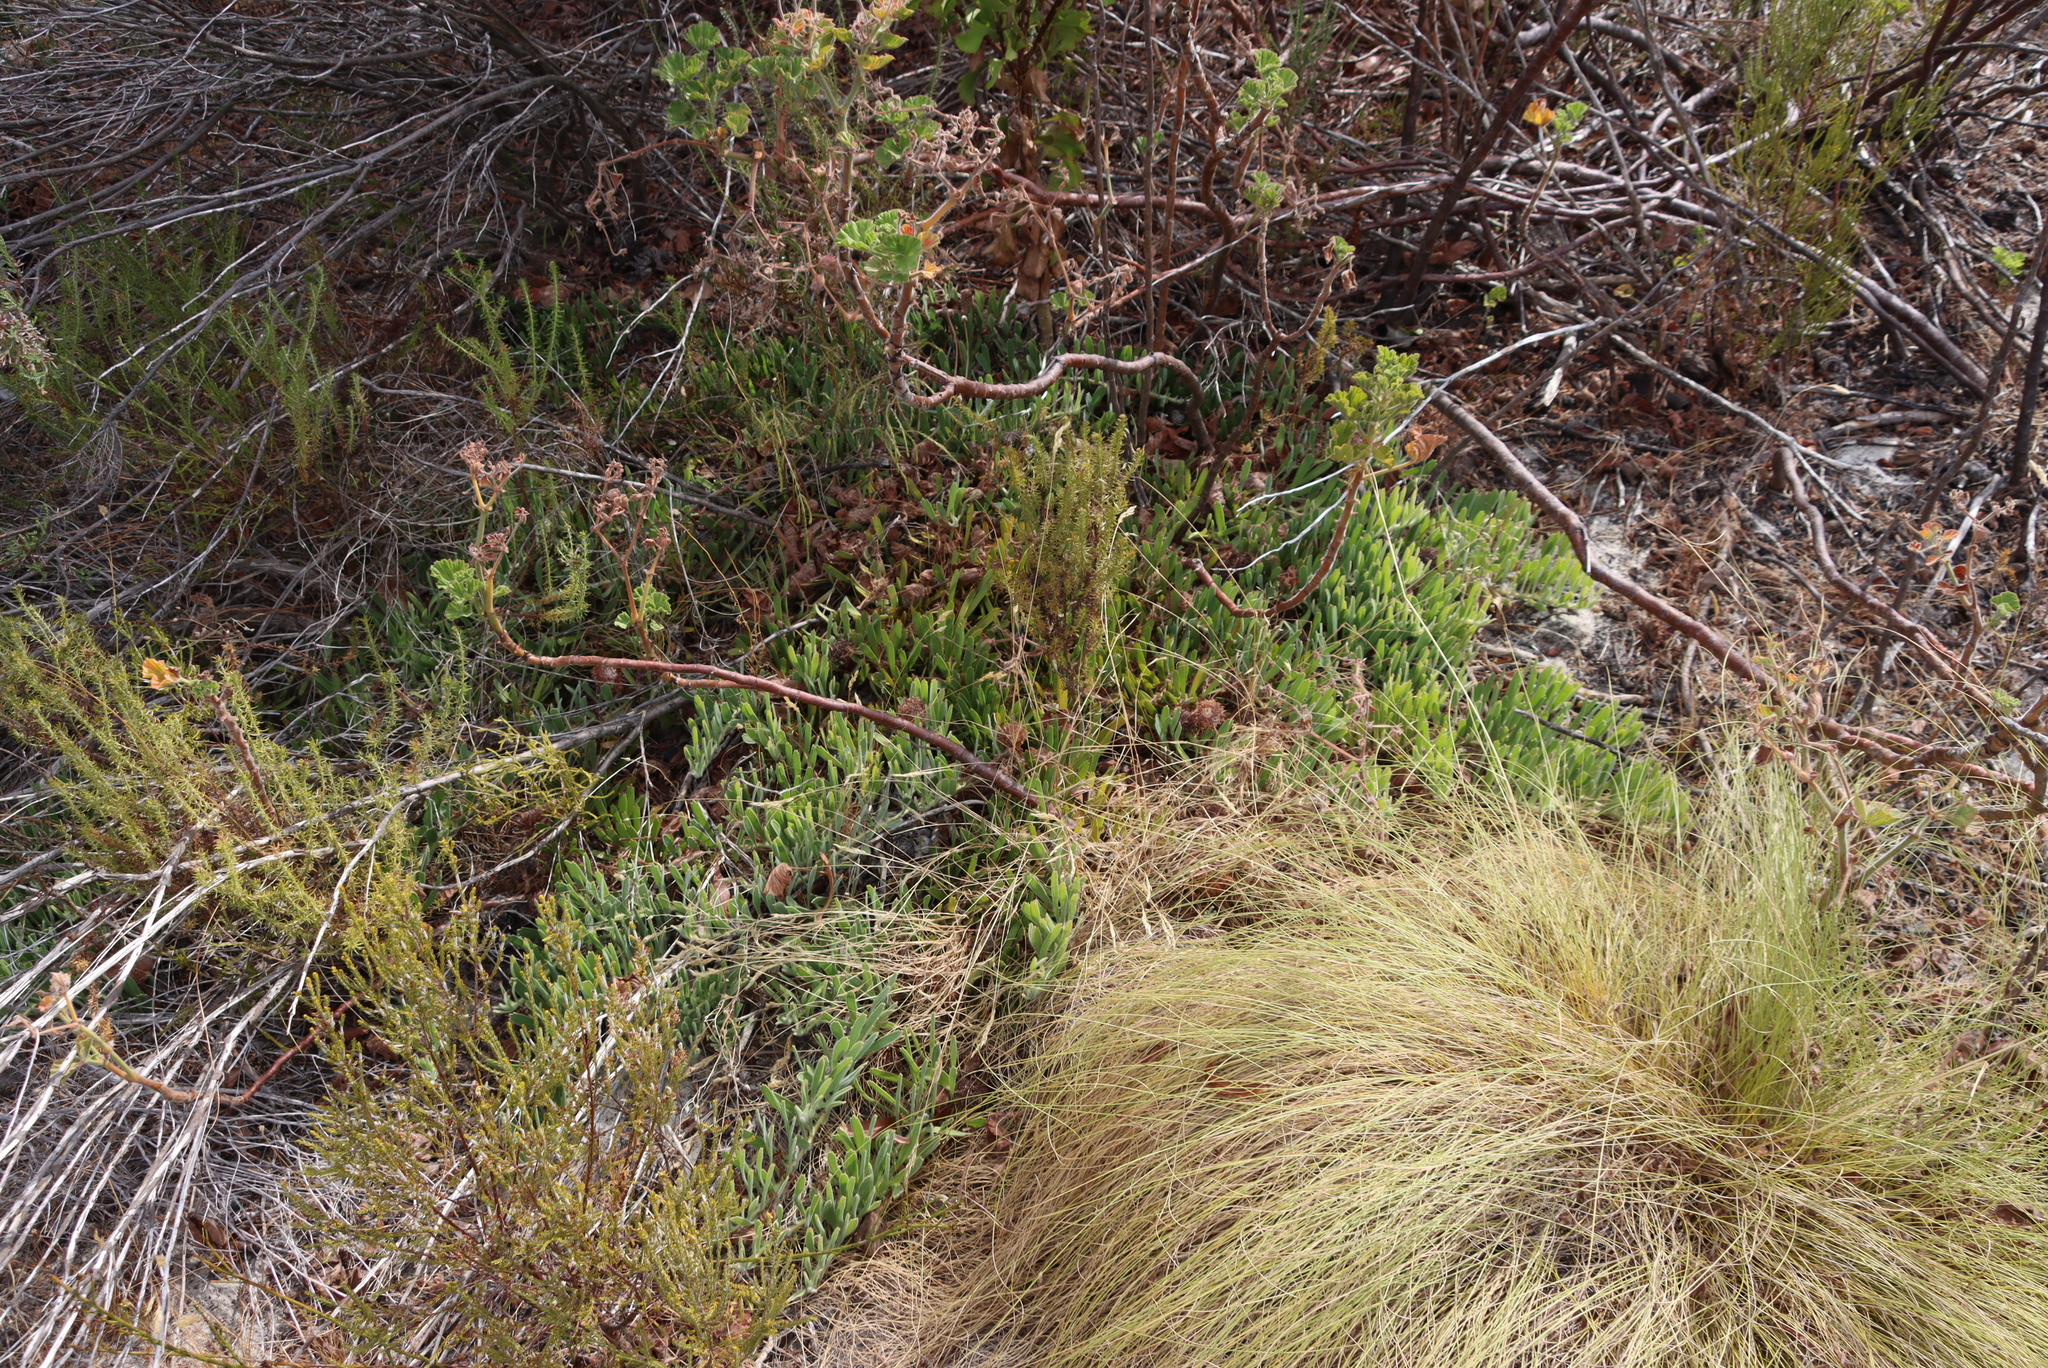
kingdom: Plantae
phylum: Tracheophyta
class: Magnoliopsida
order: Proteales
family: Proteaceae
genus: Leucospermum
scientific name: Leucospermum hypophyllocarpodendron
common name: Snakestem pincushion
